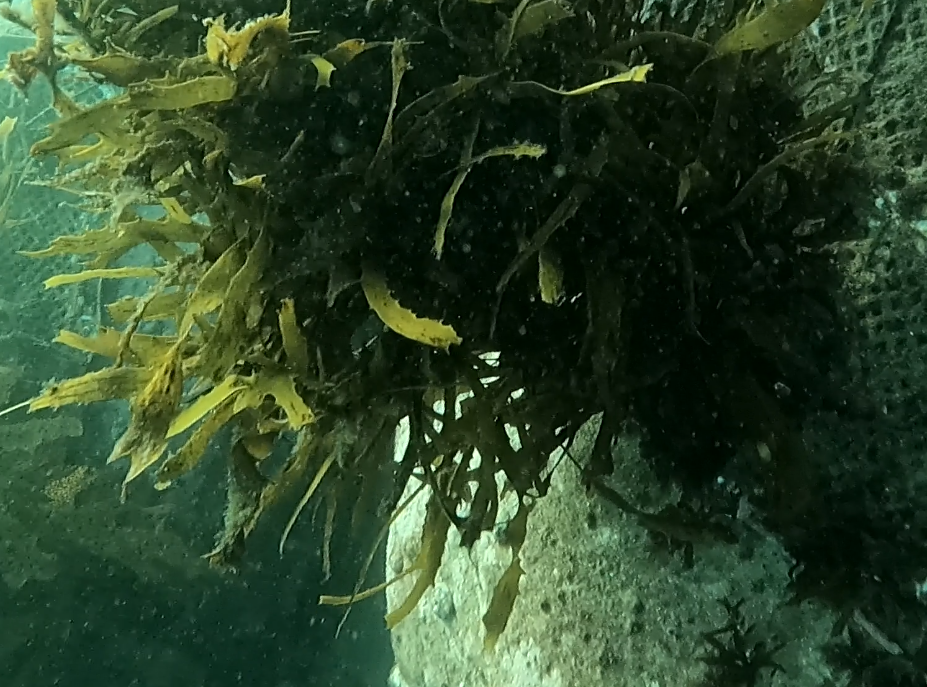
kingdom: Chromista
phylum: Ochrophyta
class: Phaeophyceae
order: Fucales
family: Seirococcaceae
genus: Phyllospora
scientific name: Phyllospora
